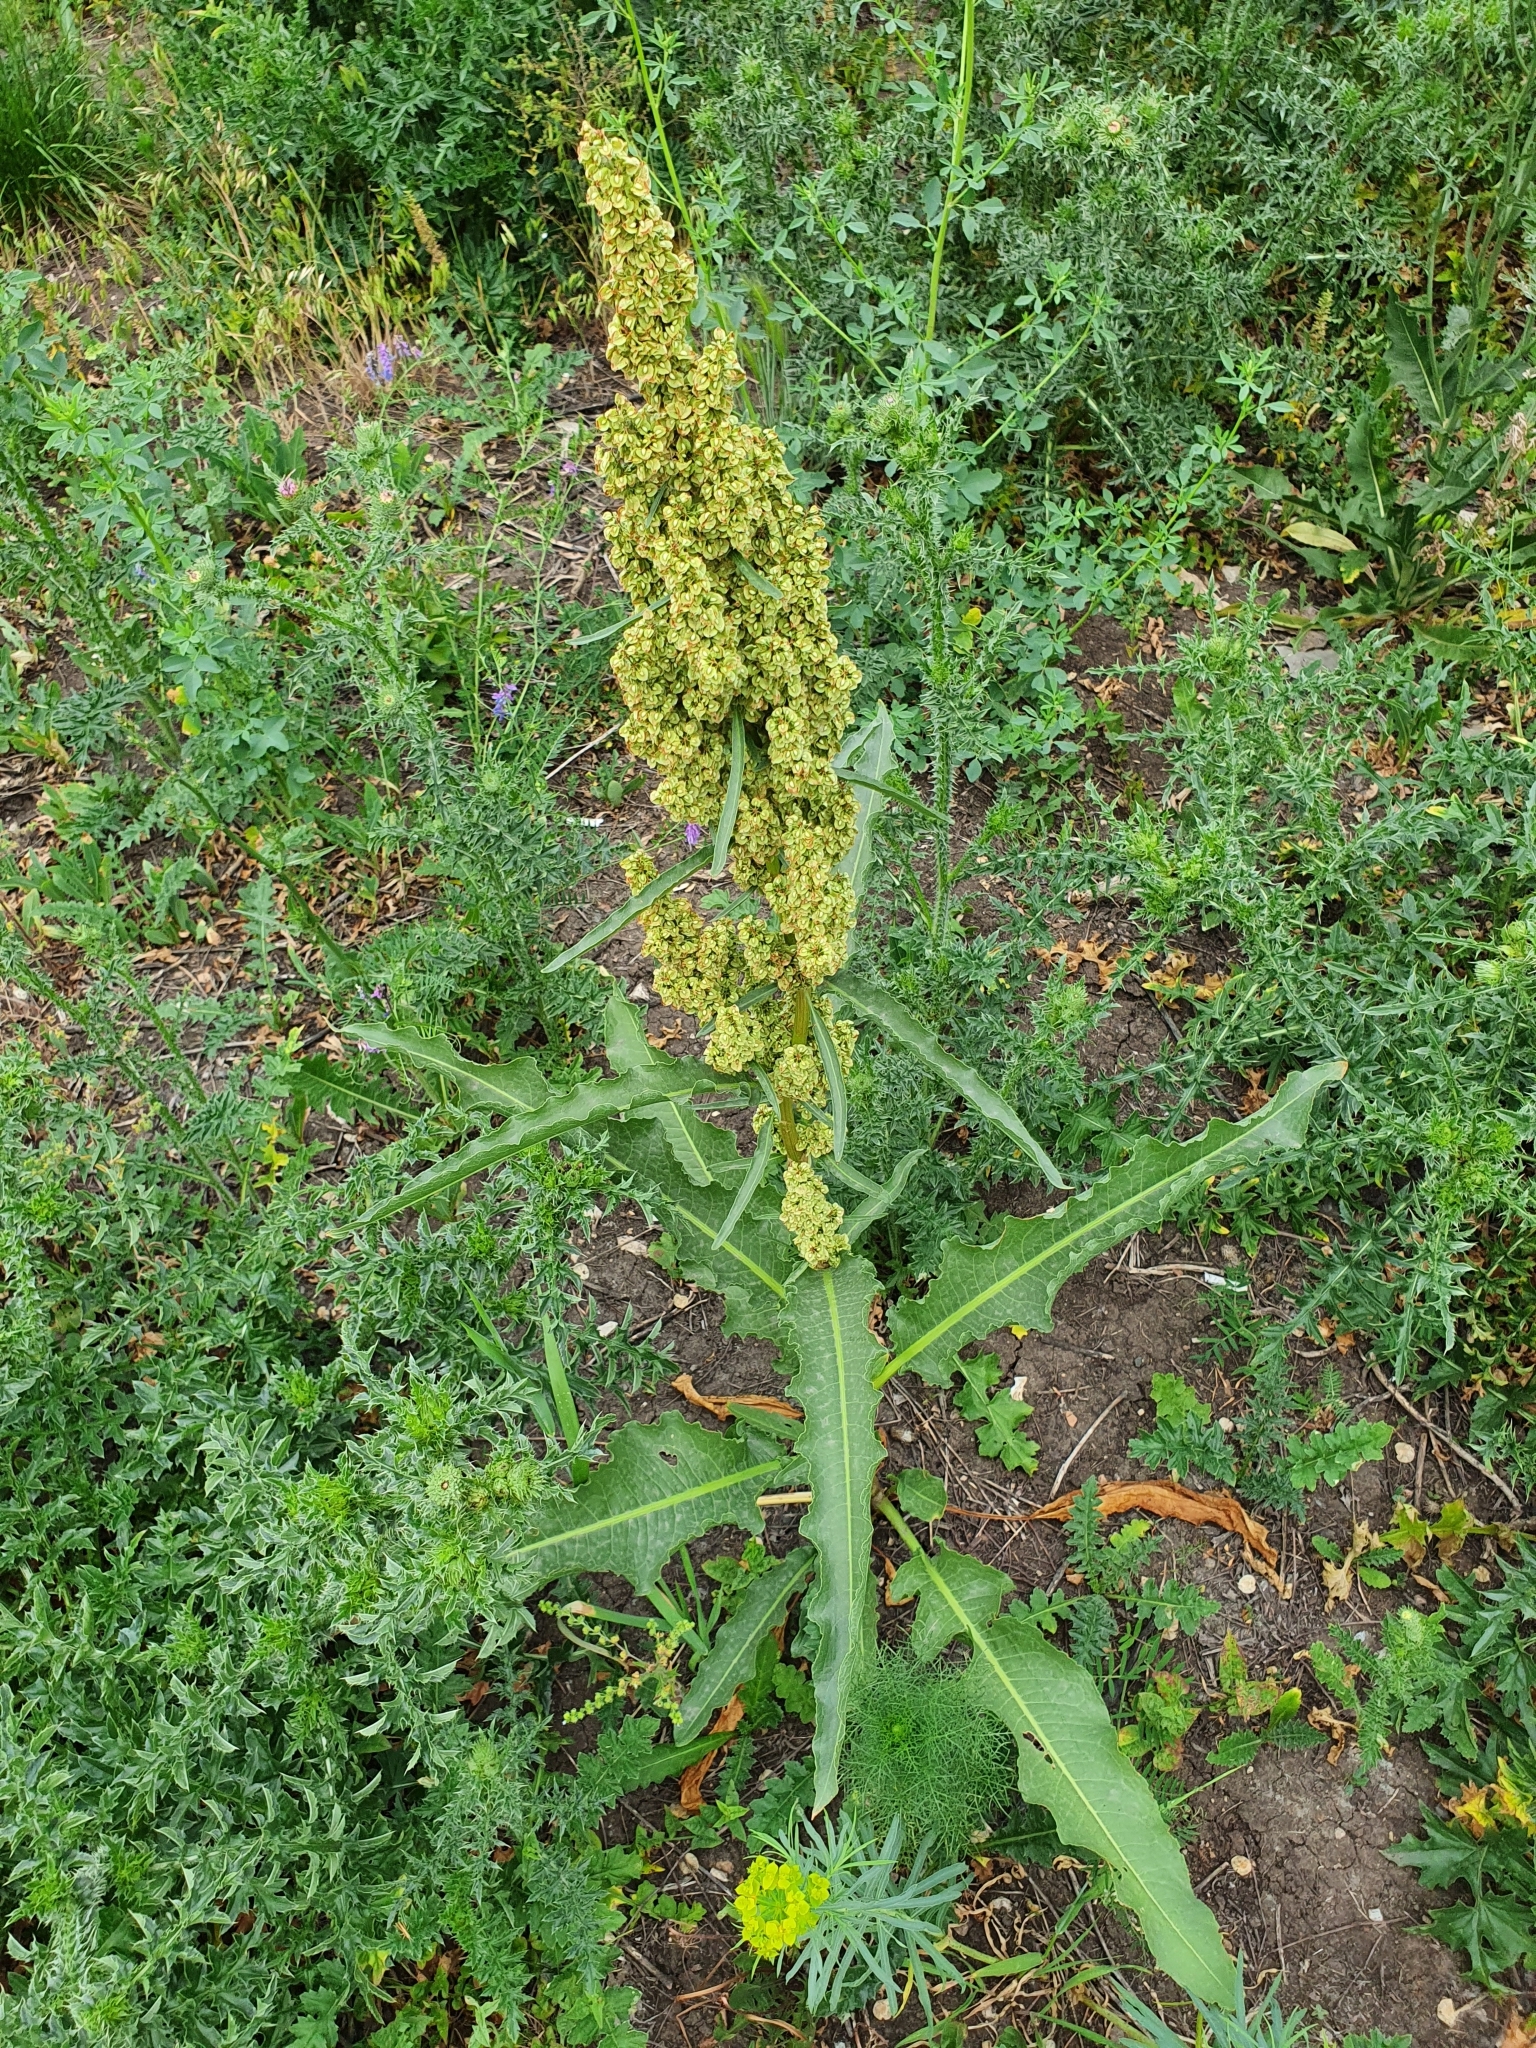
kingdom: Plantae
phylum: Tracheophyta
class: Magnoliopsida
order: Caryophyllales
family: Polygonaceae
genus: Rumex
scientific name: Rumex crispus
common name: Curled dock
